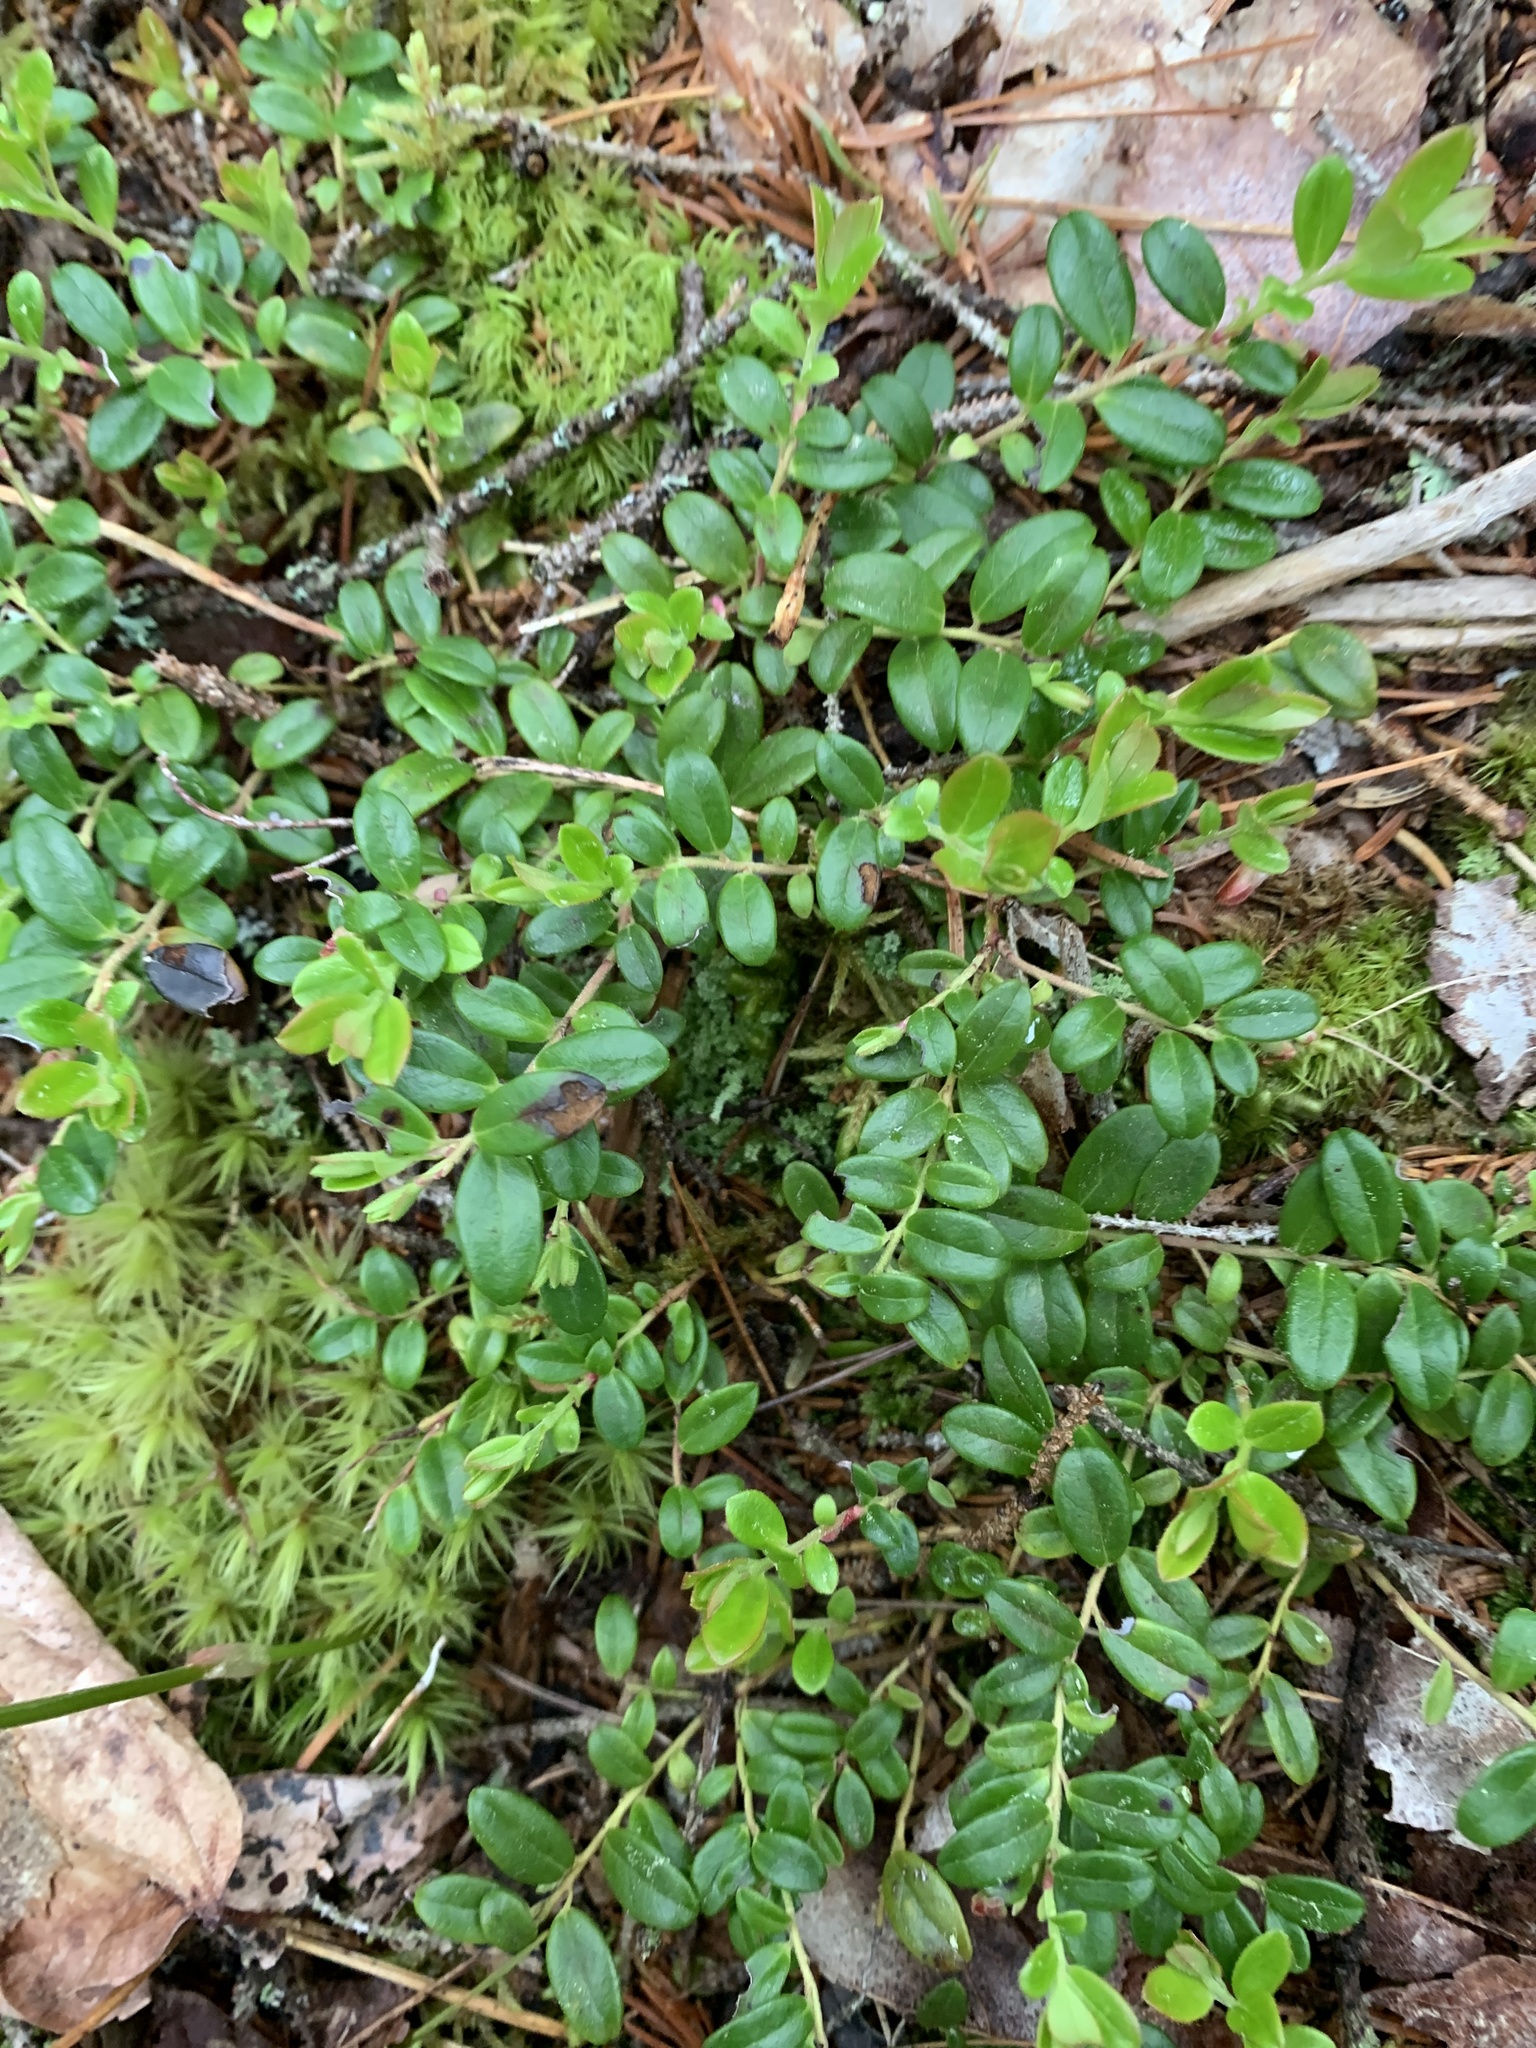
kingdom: Plantae
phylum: Tracheophyta
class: Magnoliopsida
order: Ericales
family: Ericaceae
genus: Vaccinium
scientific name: Vaccinium vitis-idaea
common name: Cowberry
